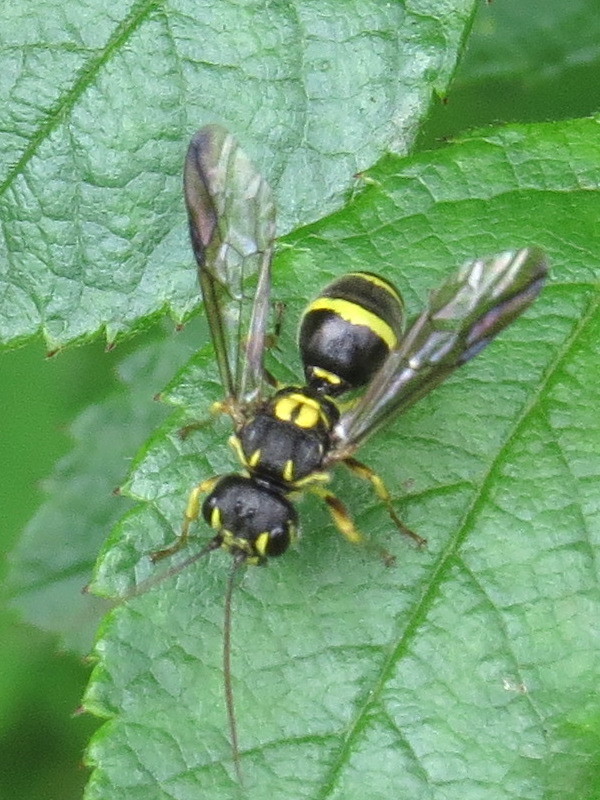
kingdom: Animalia
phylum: Arthropoda
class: Insecta
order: Hymenoptera
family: Trigonalidae
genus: Taeniogonalos
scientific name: Taeniogonalos gundlachii
